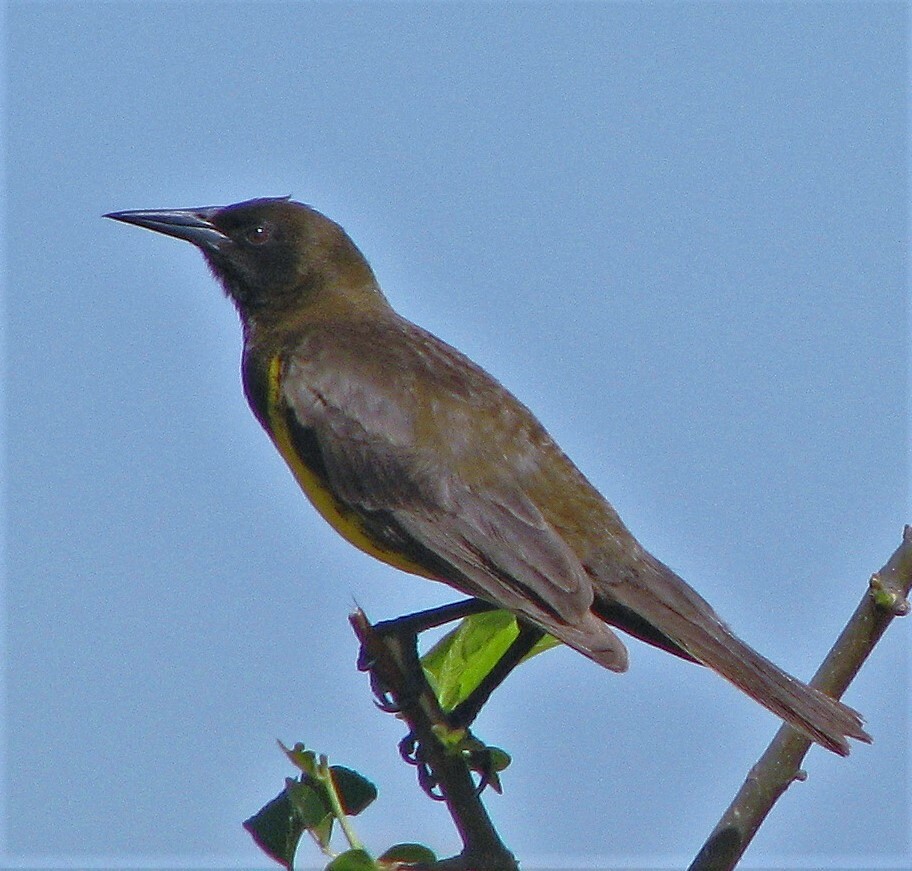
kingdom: Animalia
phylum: Chordata
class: Aves
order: Passeriformes
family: Icteridae
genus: Pseudoleistes
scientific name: Pseudoleistes virescens
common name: Brown-and-yellow marshbird
